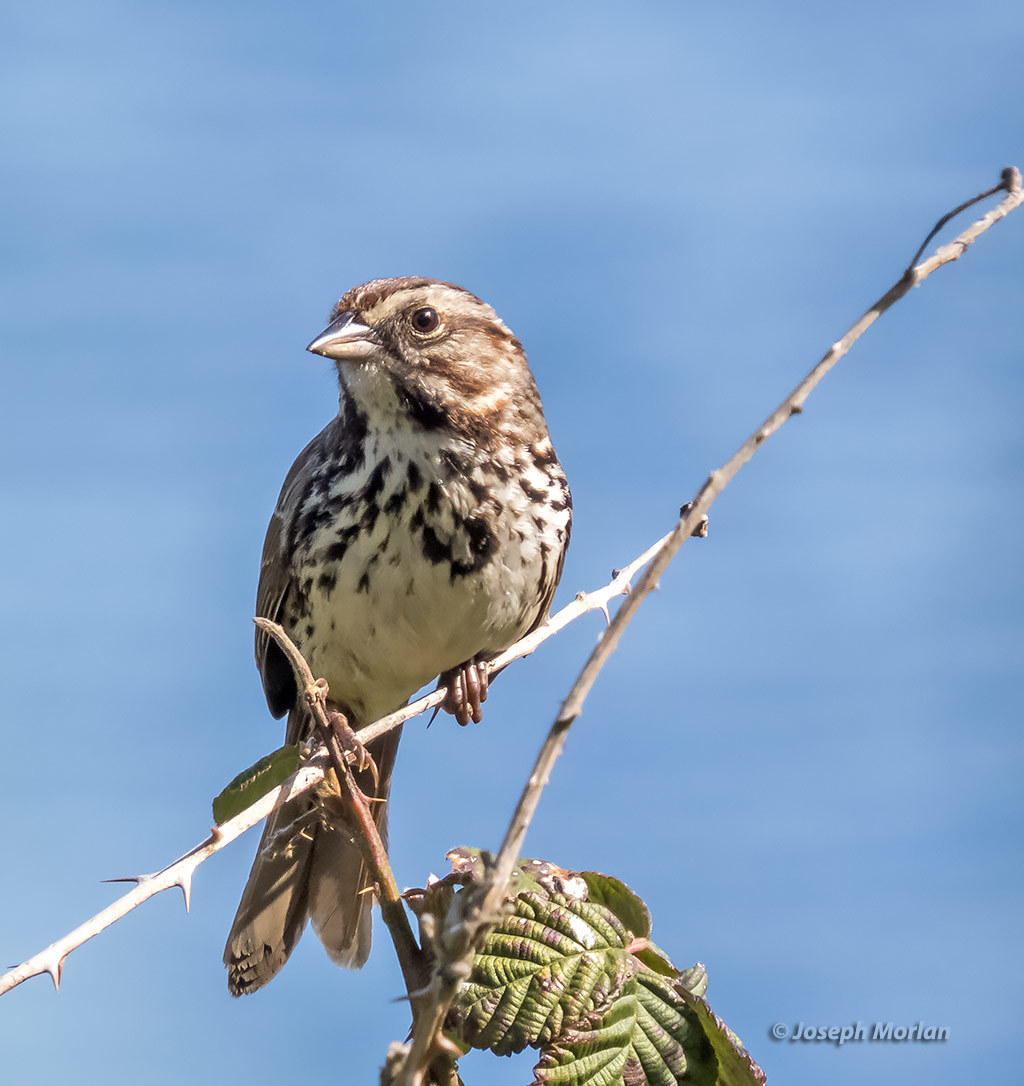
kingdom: Animalia
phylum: Chordata
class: Aves
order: Passeriformes
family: Passerellidae
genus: Melospiza
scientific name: Melospiza melodia
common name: Song sparrow
